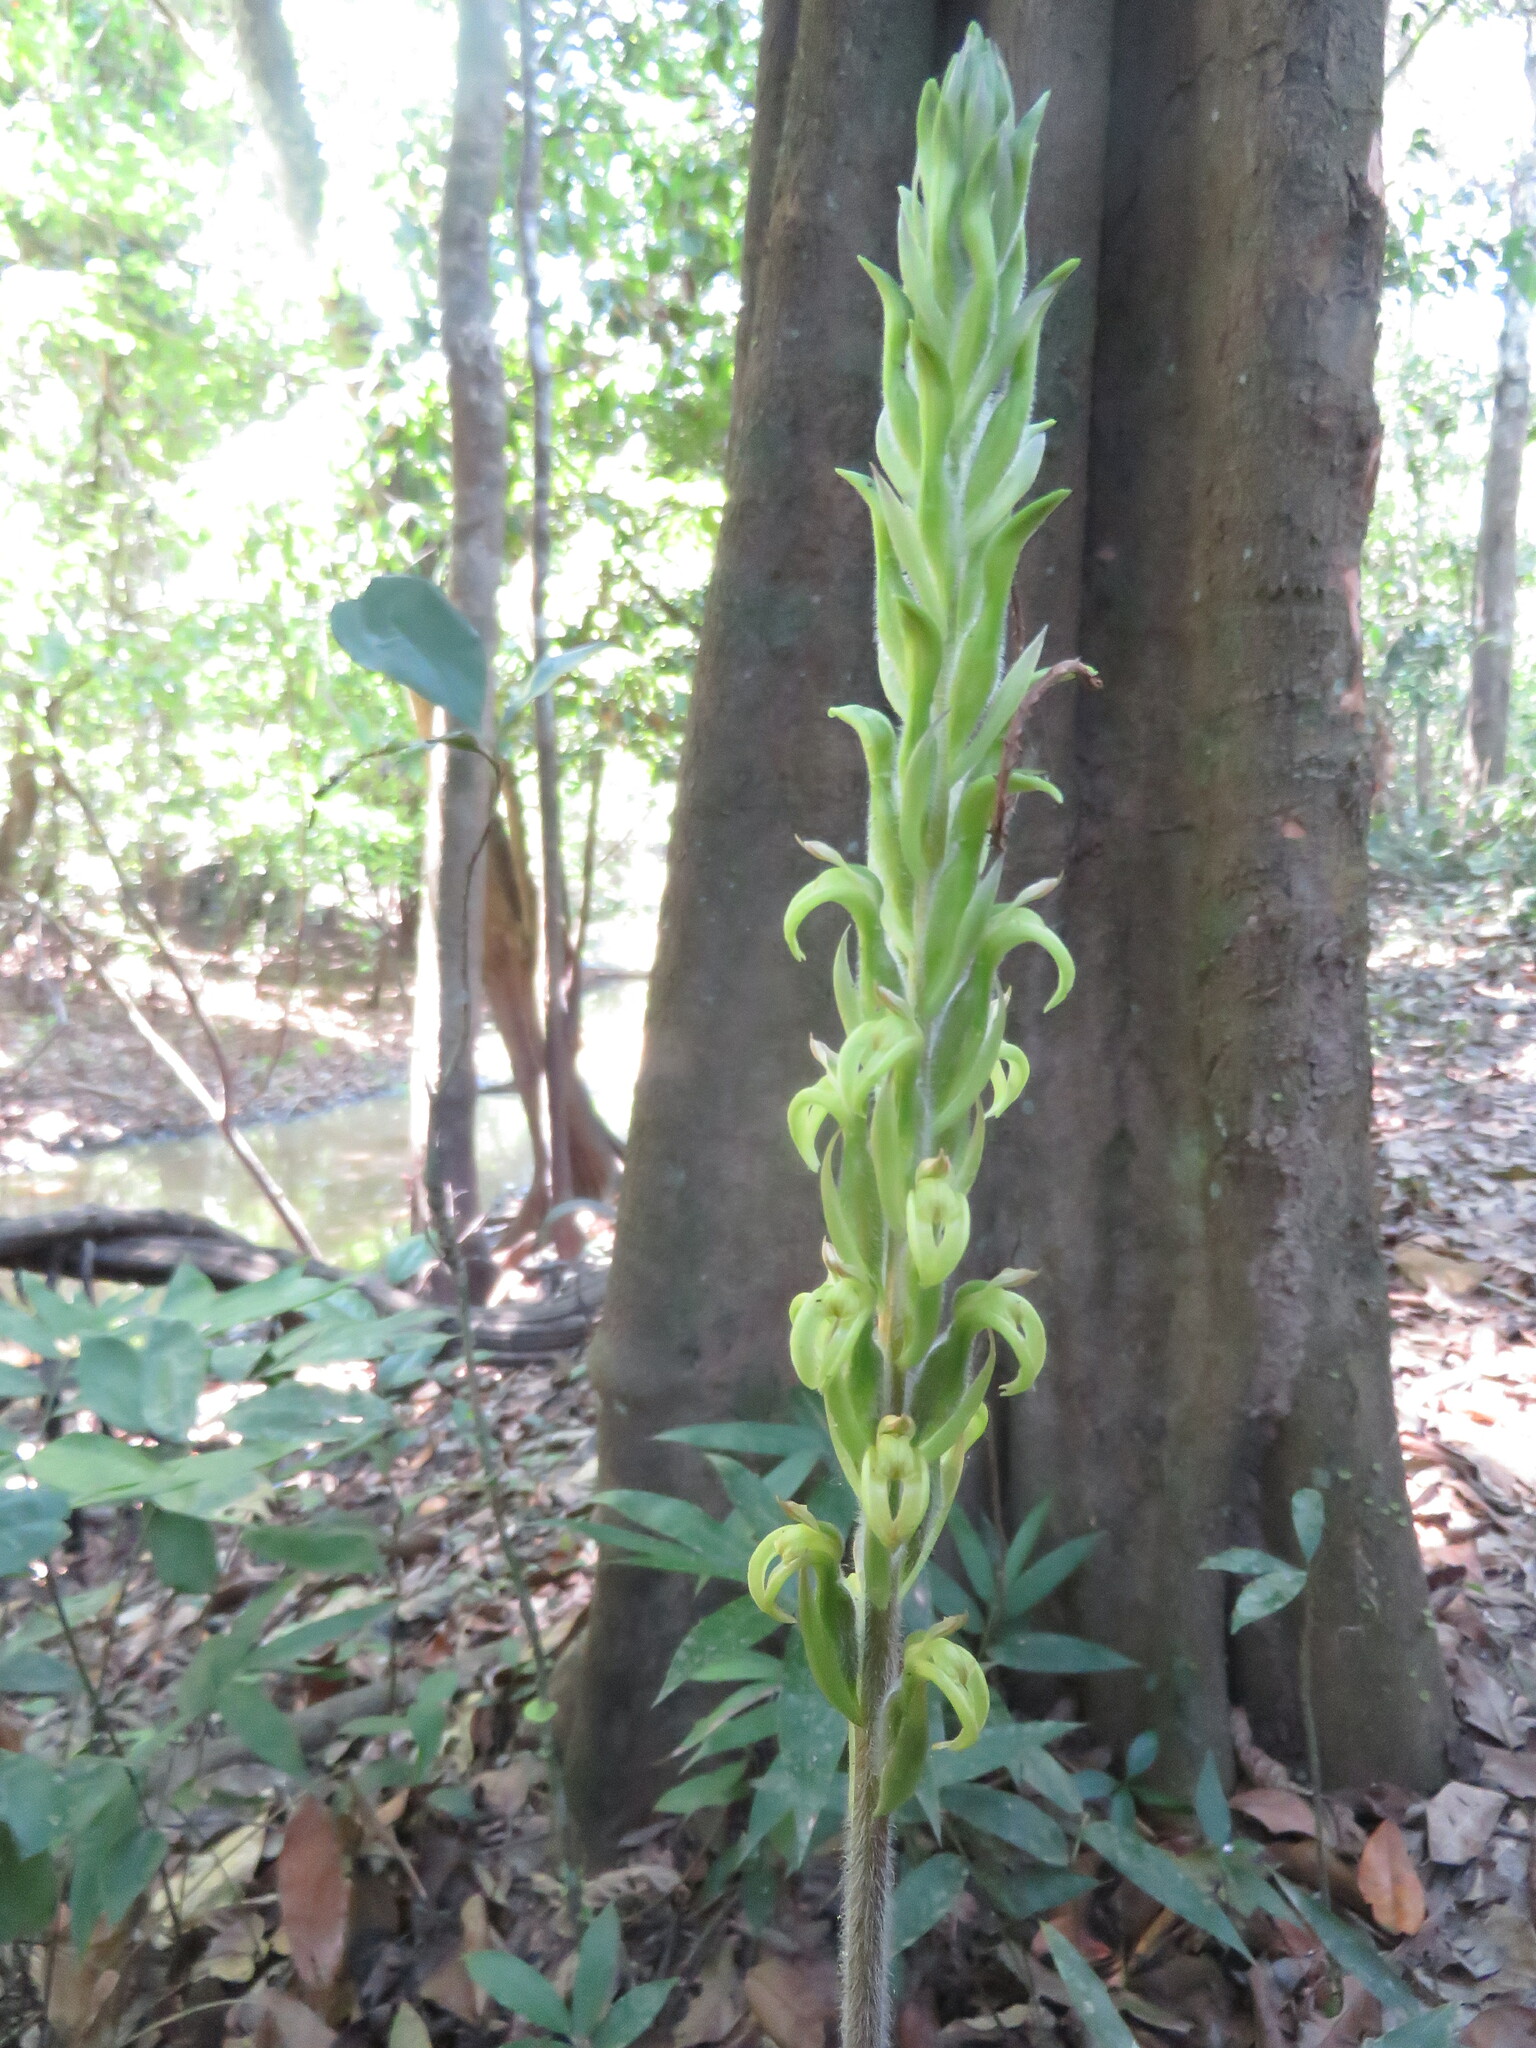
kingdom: Plantae
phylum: Tracheophyta
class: Liliopsida
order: Asparagales
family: Orchidaceae
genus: Sarcoglottis
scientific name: Sarcoglottis grandiflora
